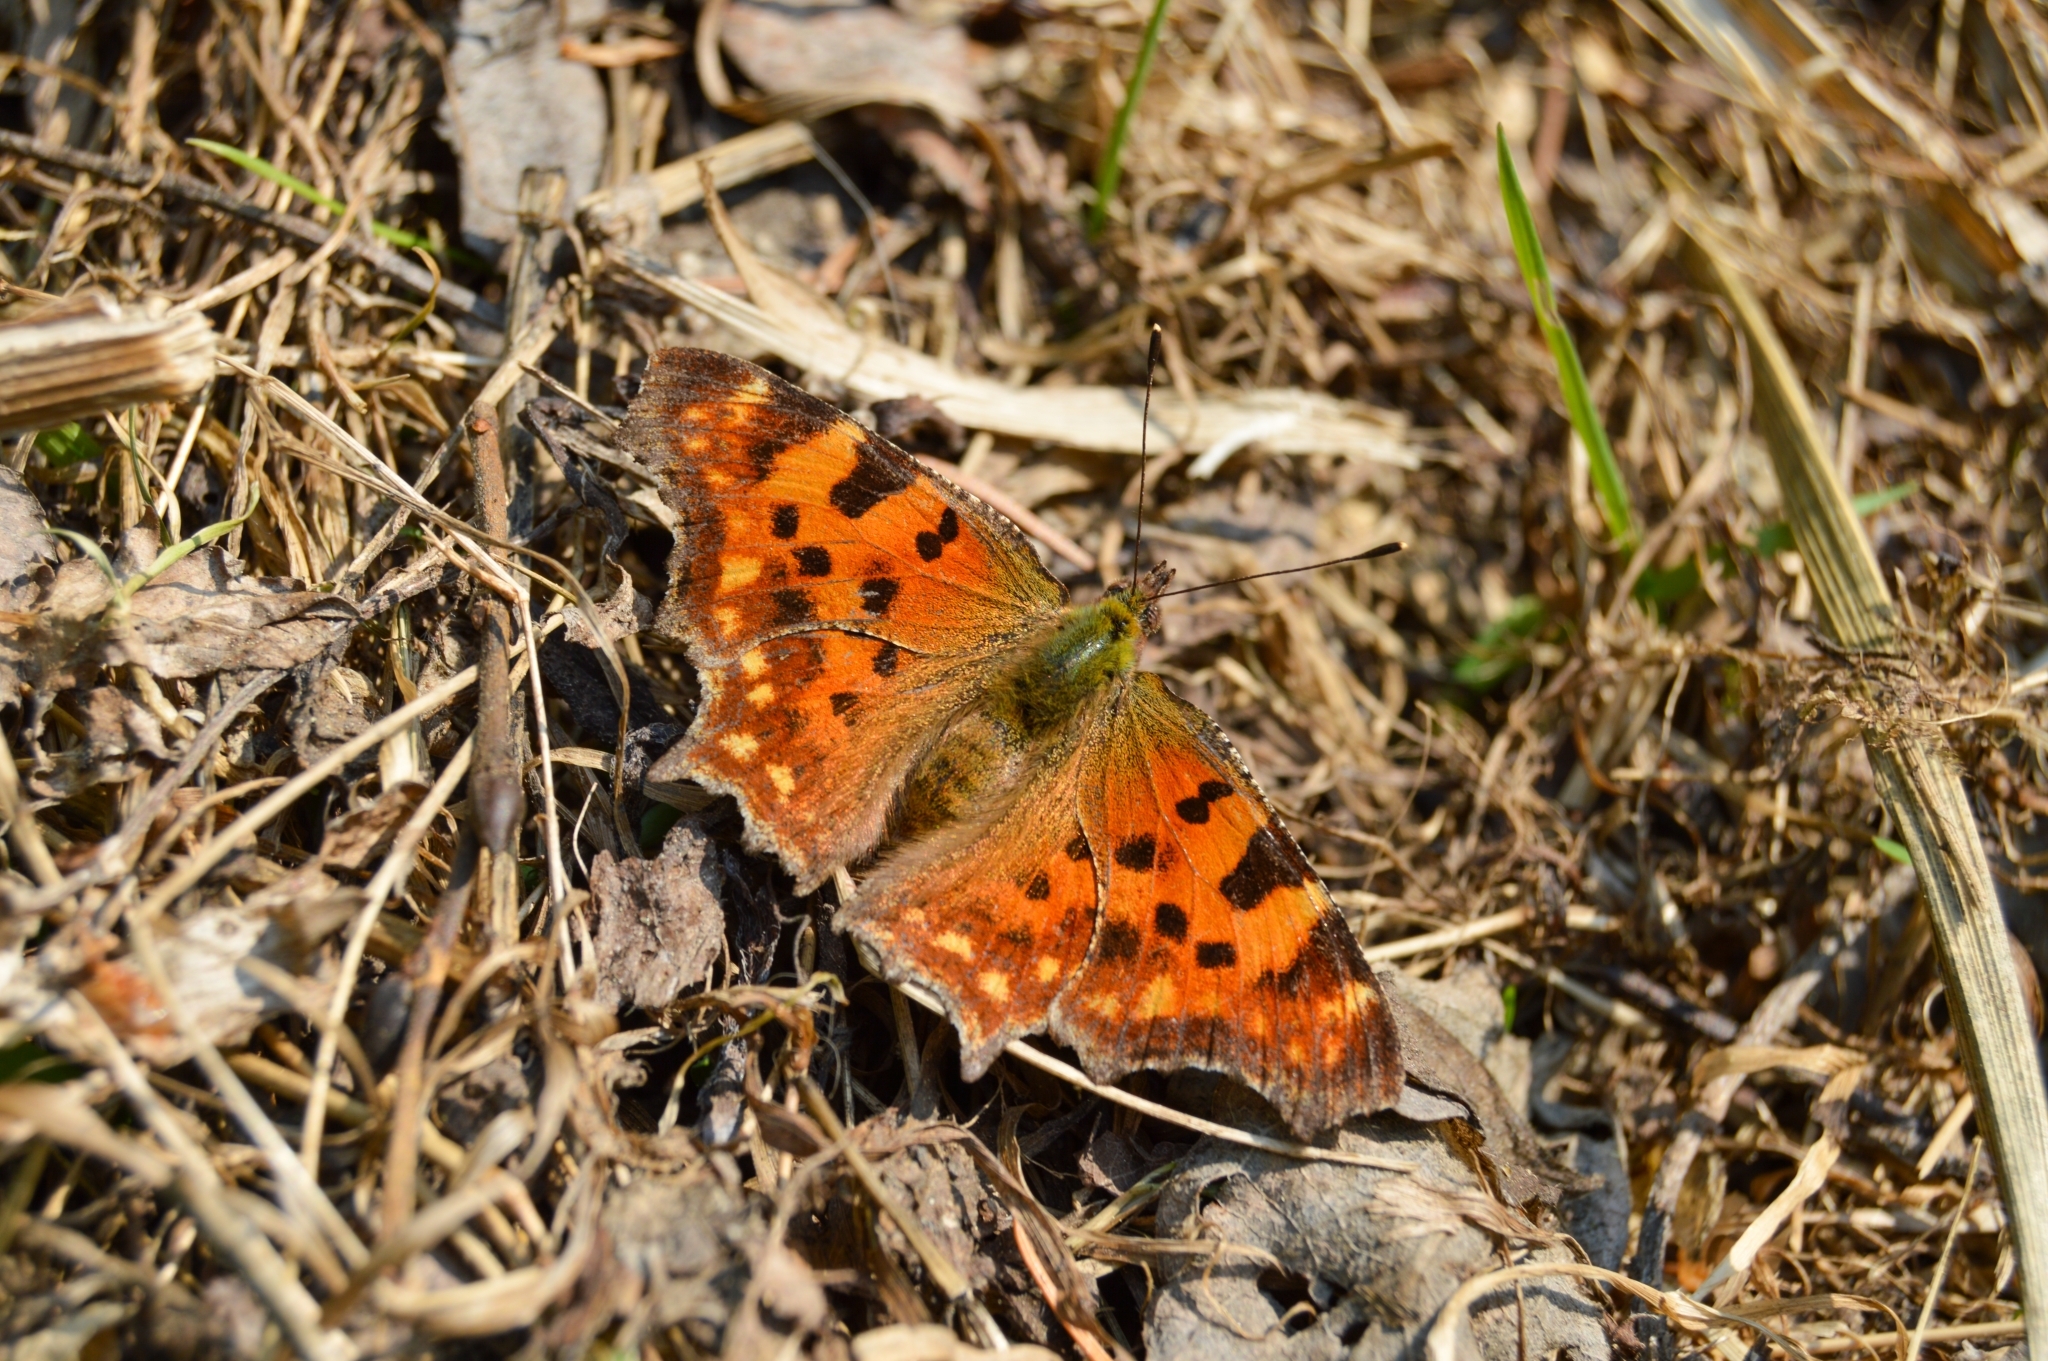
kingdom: Animalia
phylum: Arthropoda
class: Insecta
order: Lepidoptera
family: Nymphalidae
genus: Polygonia
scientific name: Polygonia c-album
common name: Comma
